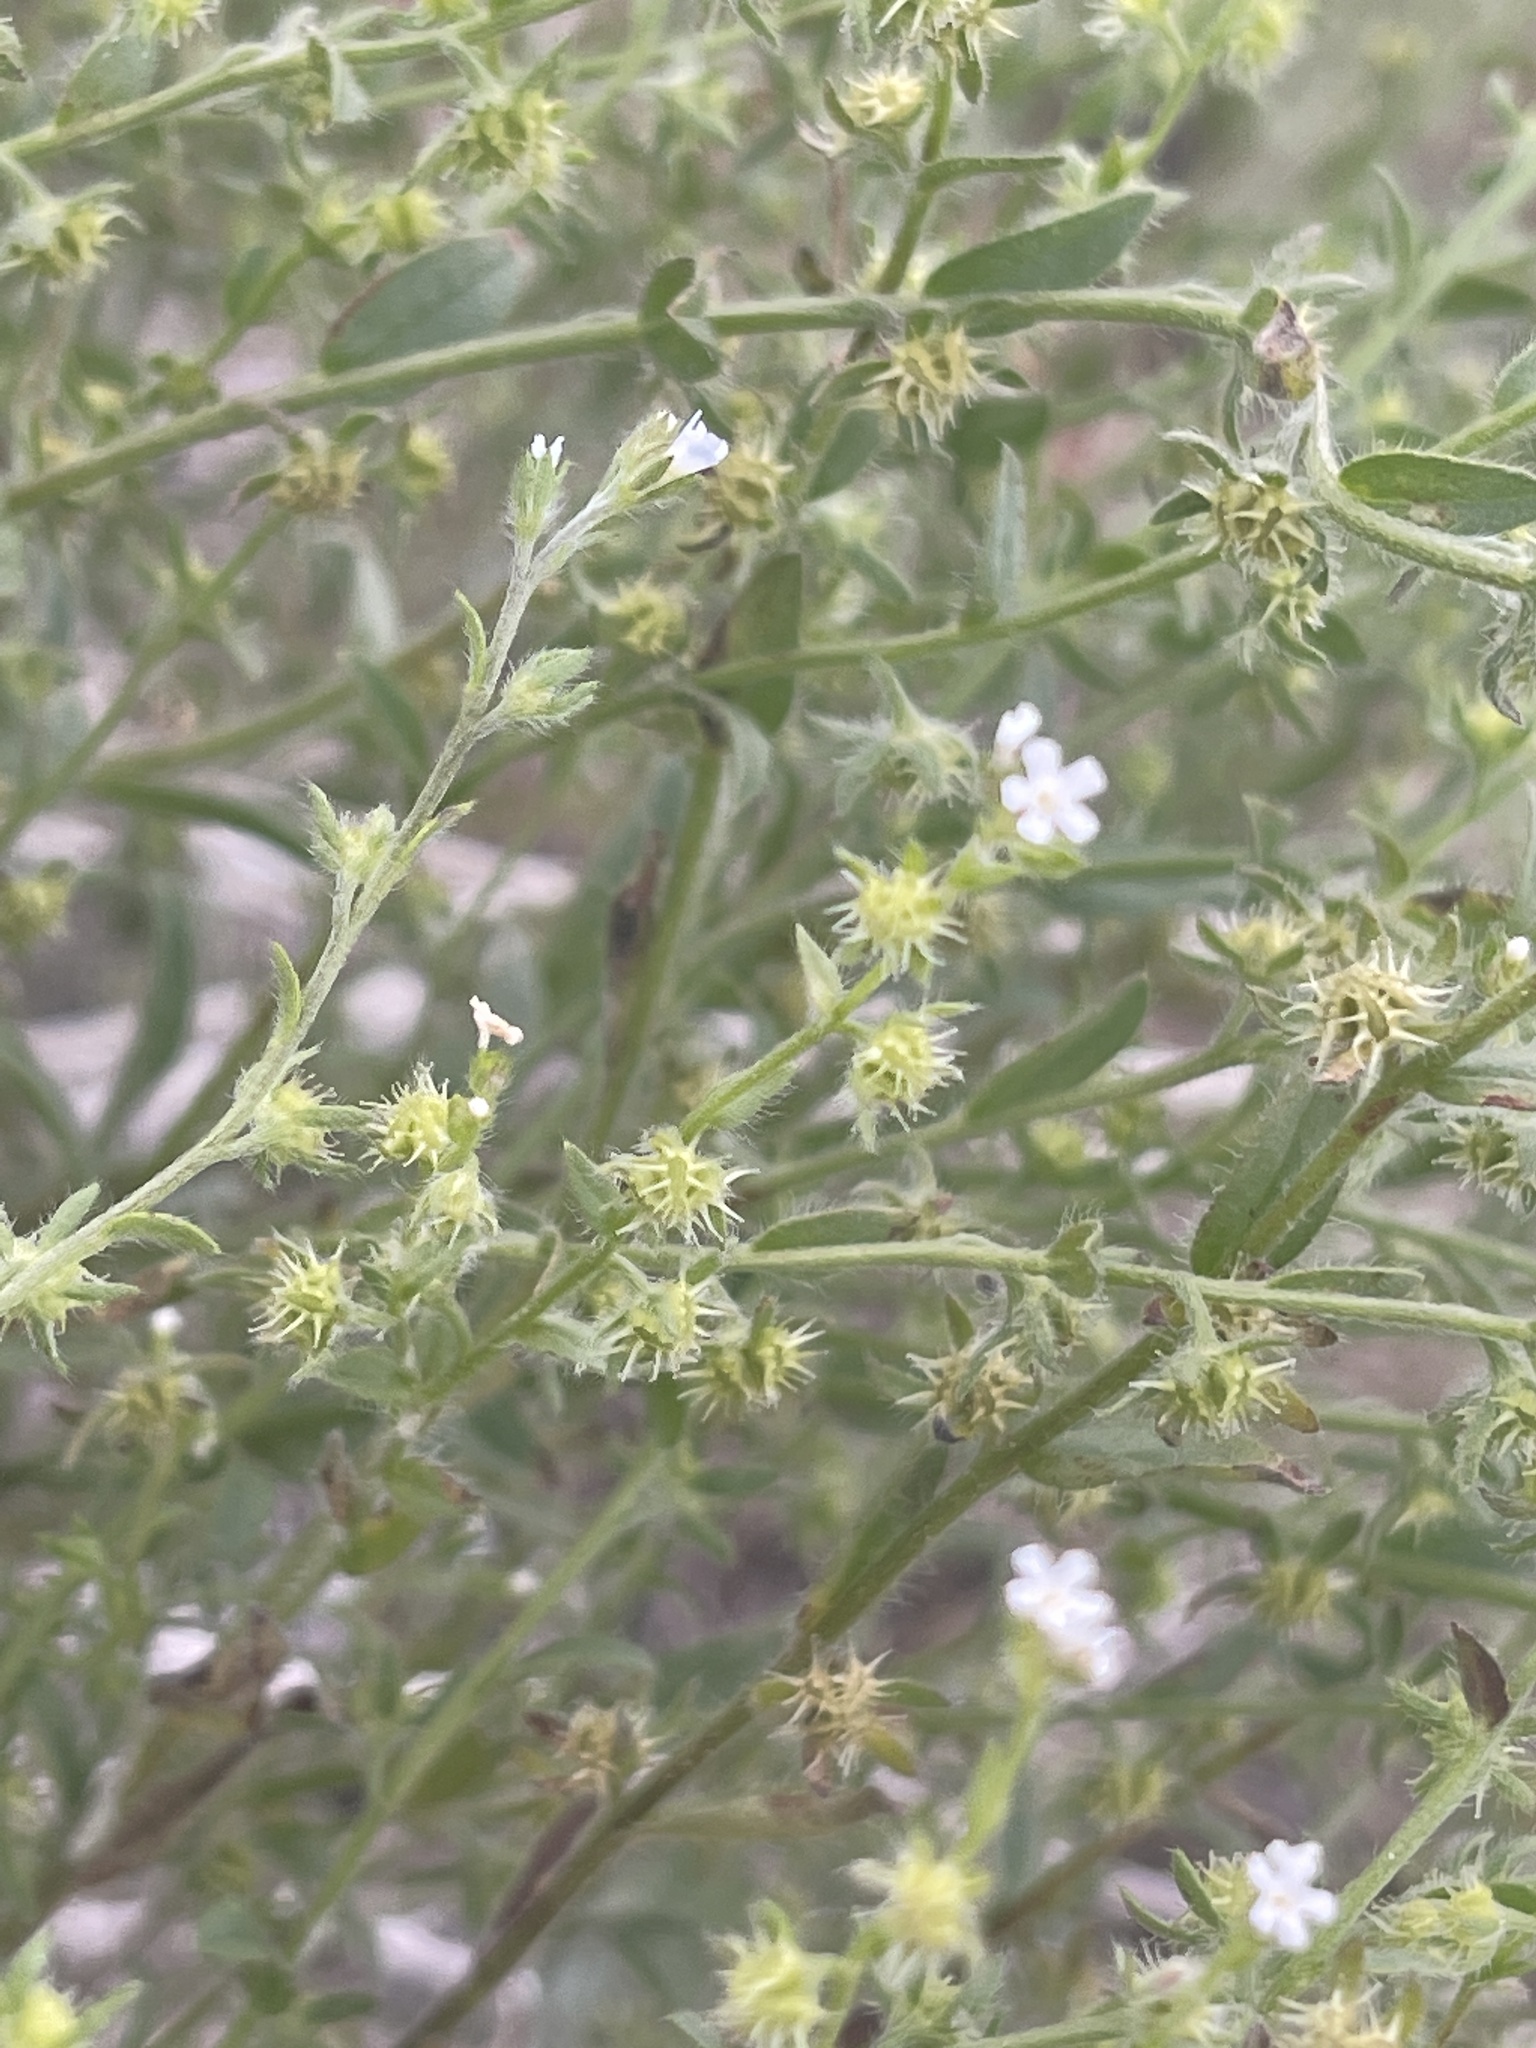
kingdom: Plantae
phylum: Tracheophyta
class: Magnoliopsida
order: Boraginales
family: Boraginaceae
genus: Lappula
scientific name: Lappula occidentalis
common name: Western stickseed
